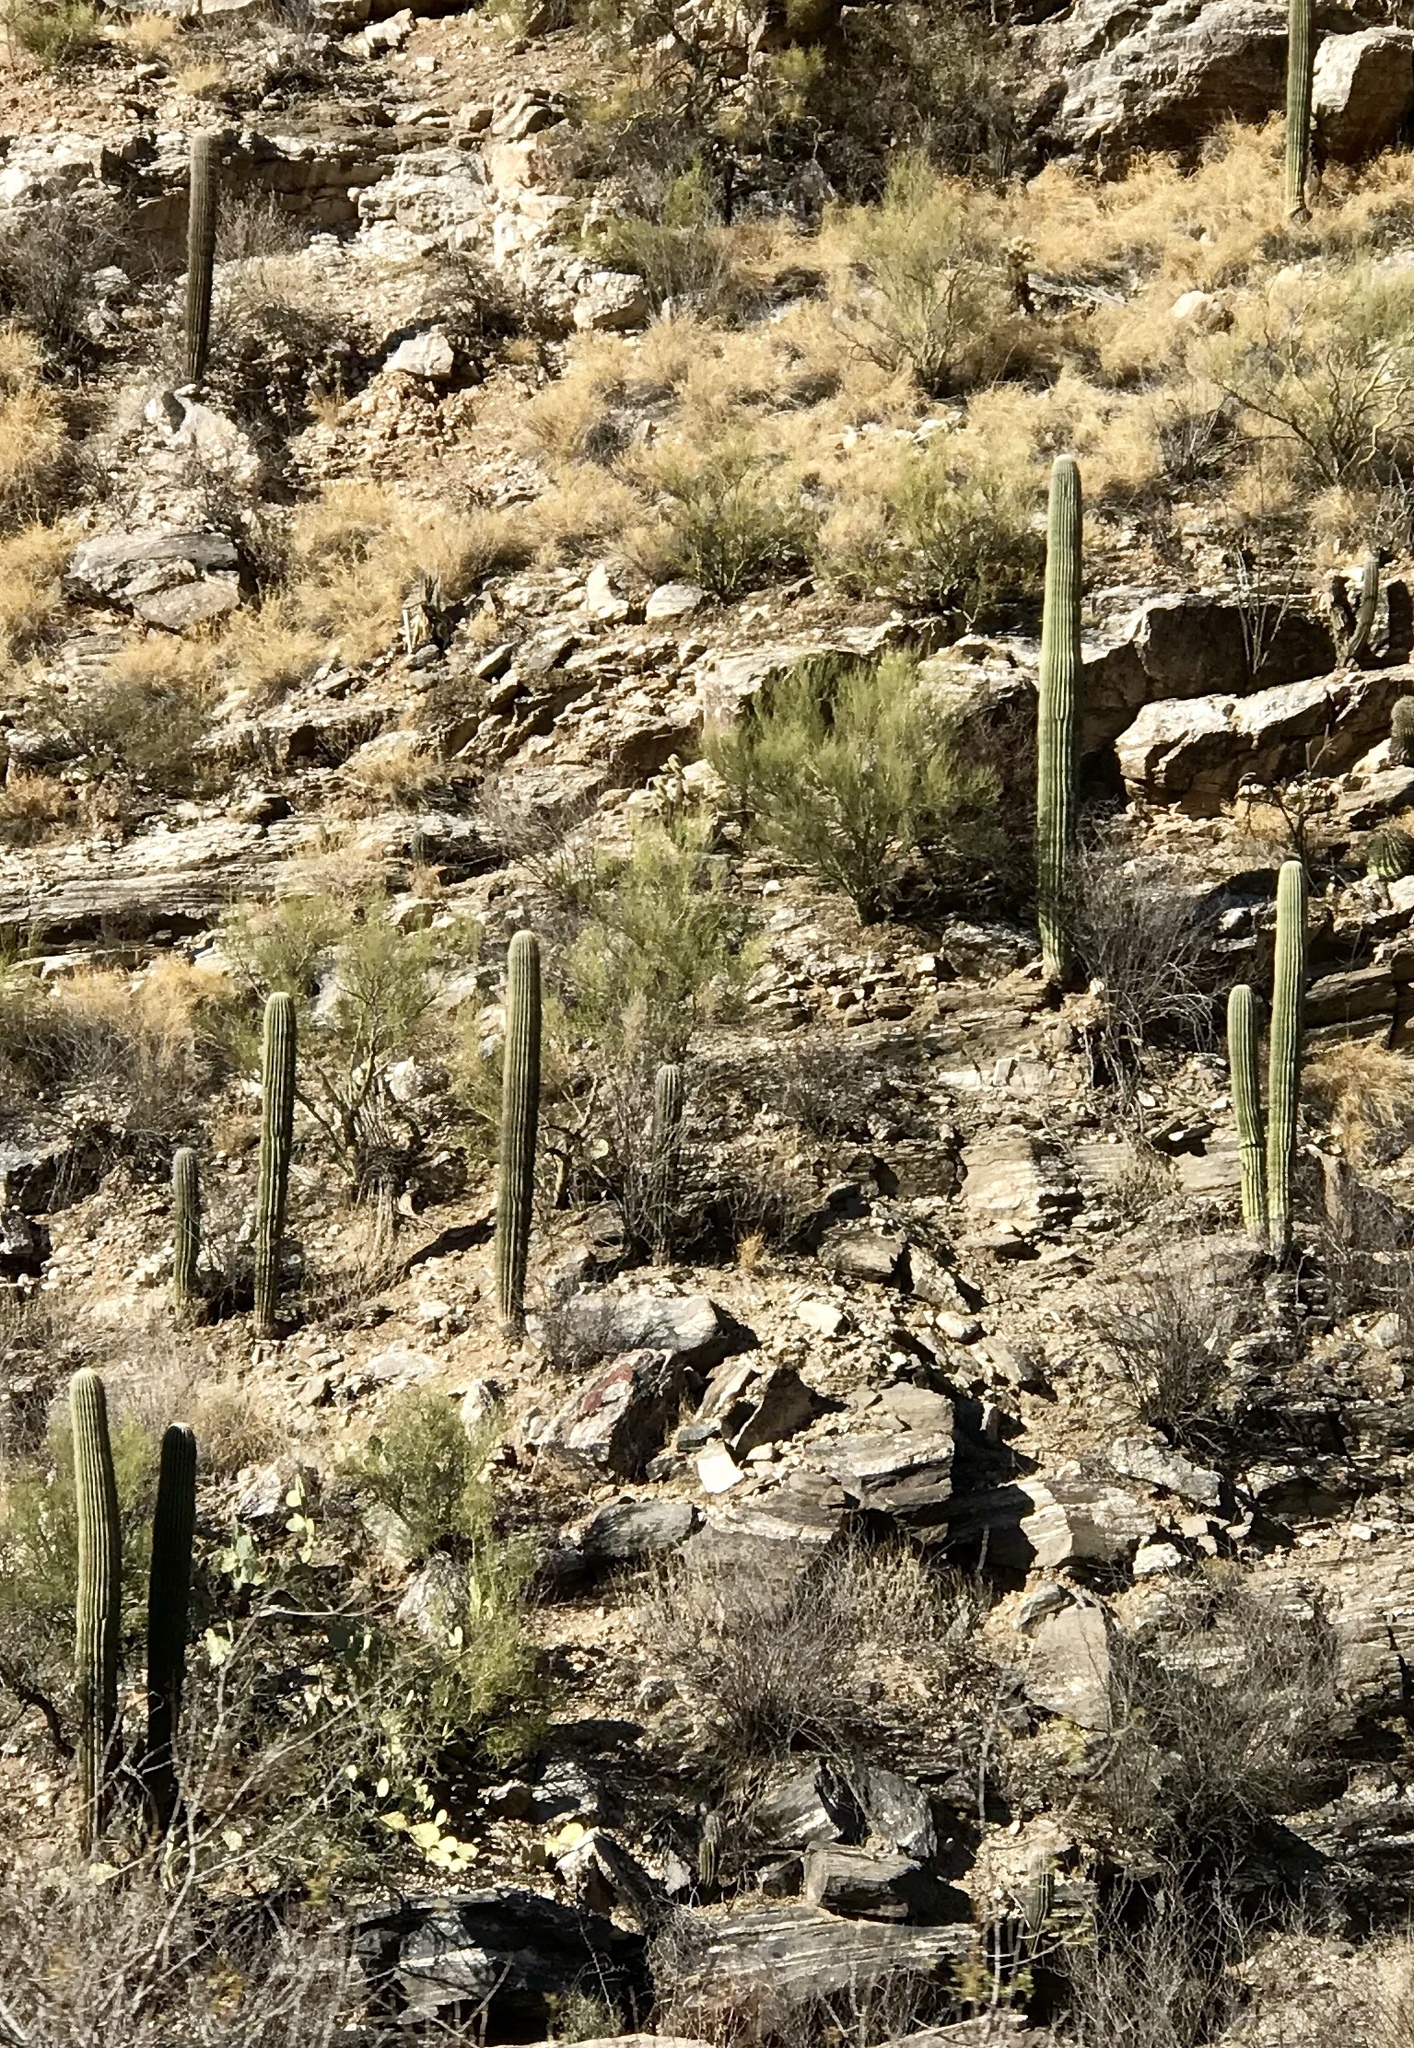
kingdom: Plantae
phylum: Tracheophyta
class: Magnoliopsida
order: Caryophyllales
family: Cactaceae
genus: Carnegiea
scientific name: Carnegiea gigantea
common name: Saguaro
